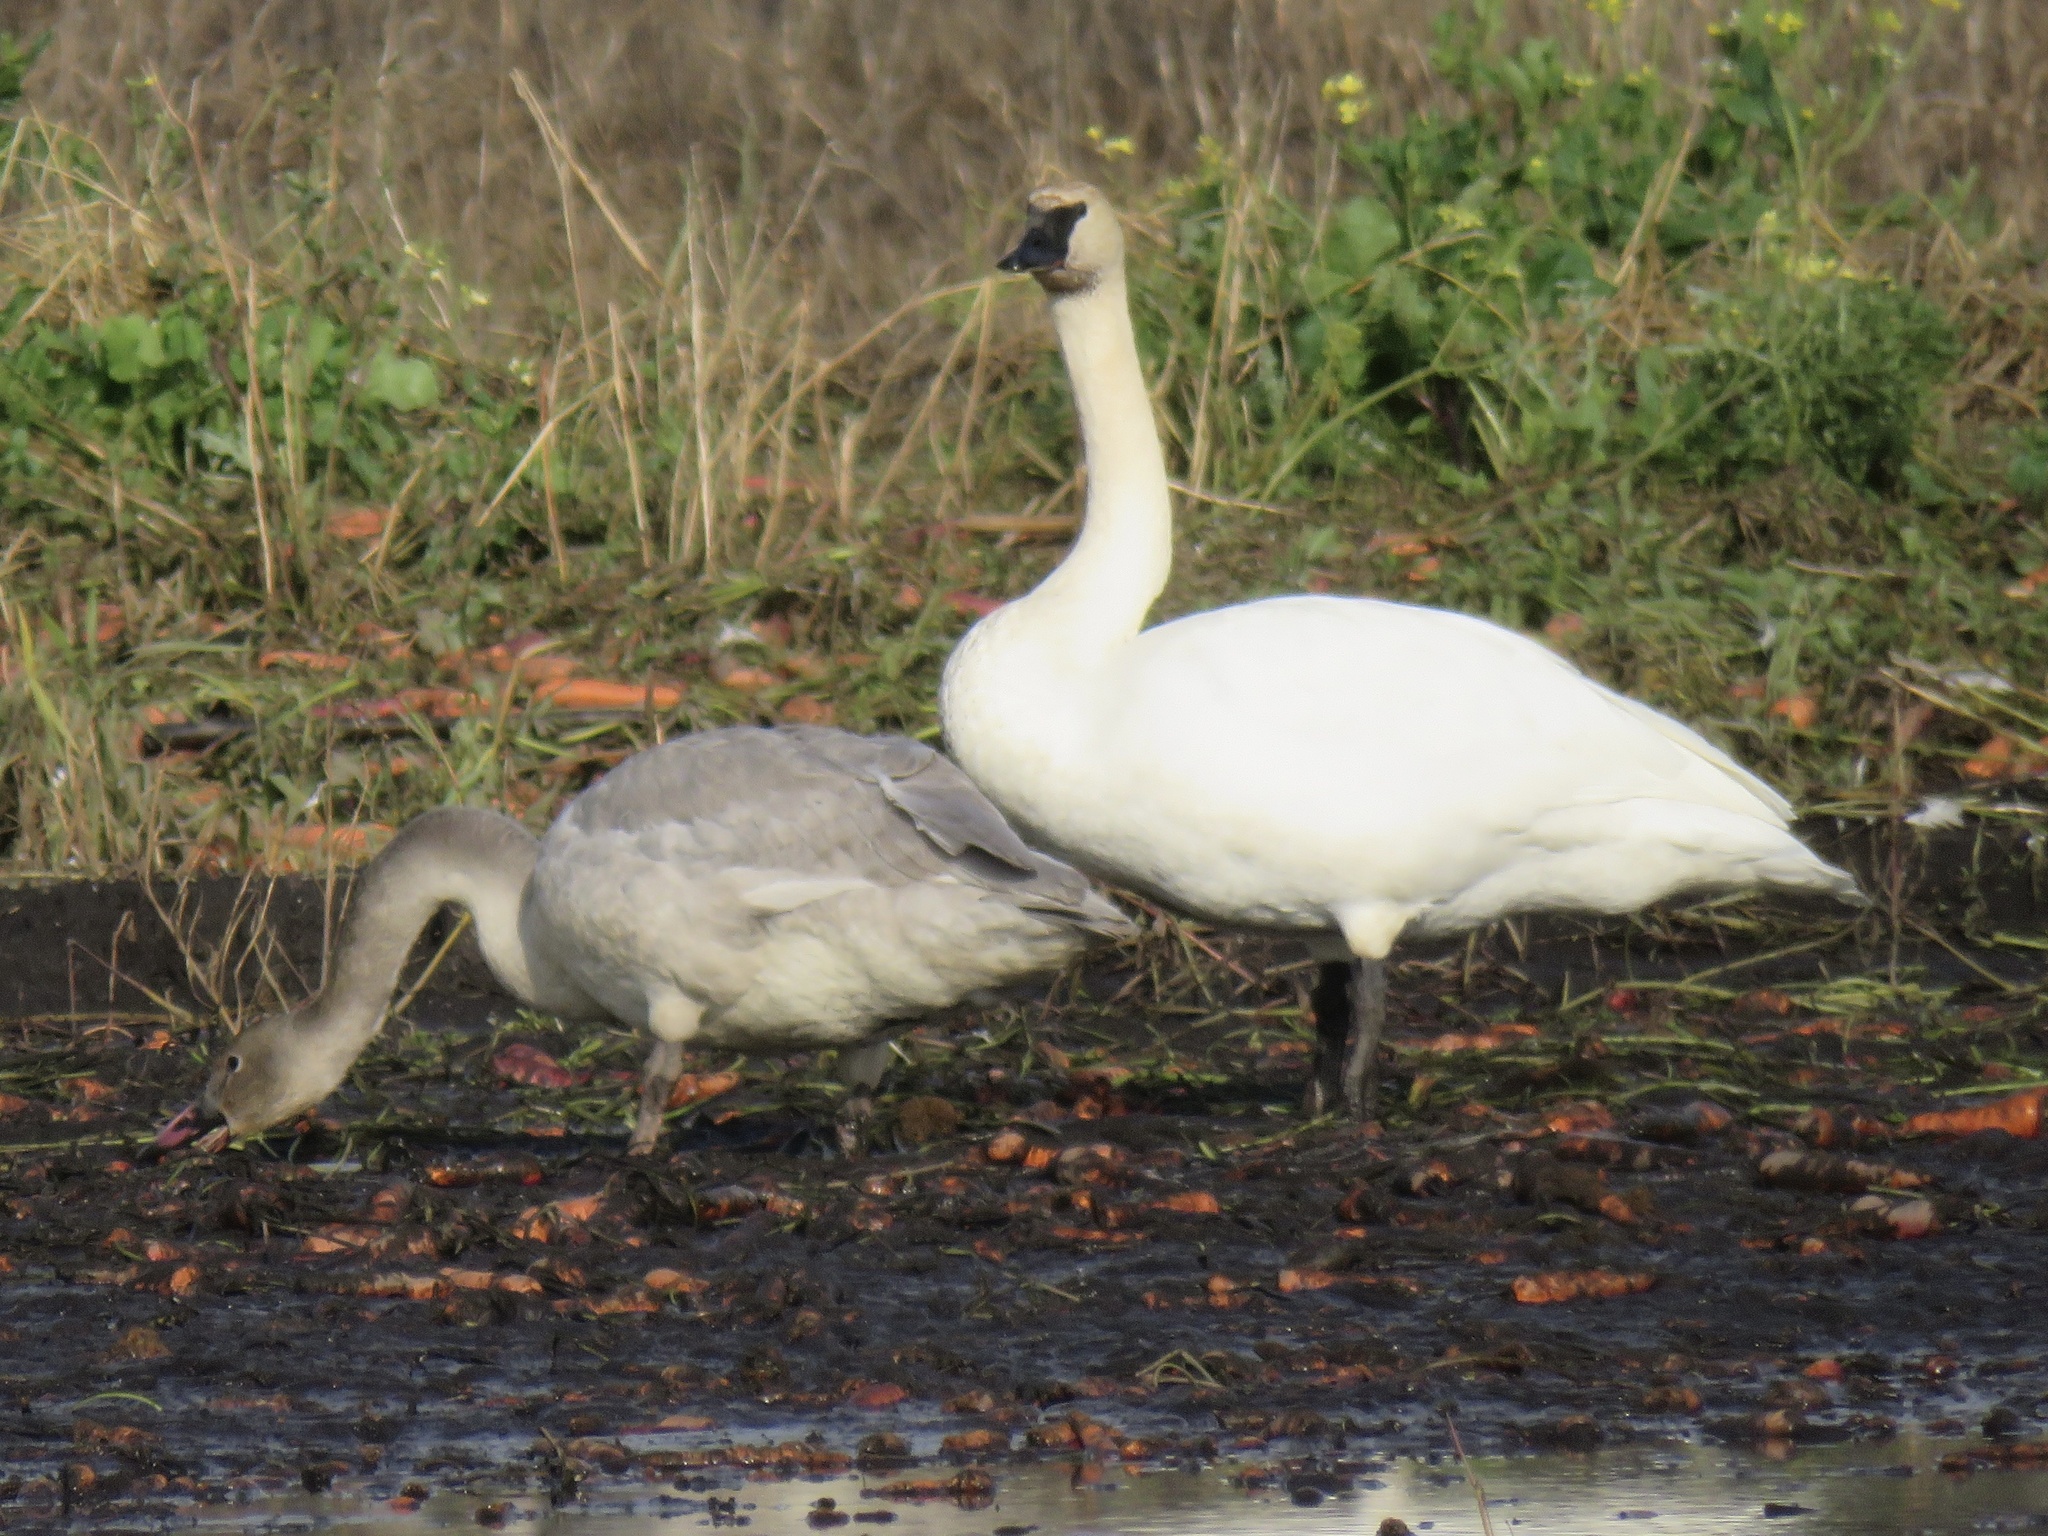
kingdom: Animalia
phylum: Chordata
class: Aves
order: Anseriformes
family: Anatidae
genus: Cygnus
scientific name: Cygnus buccinator
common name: Trumpeter swan
